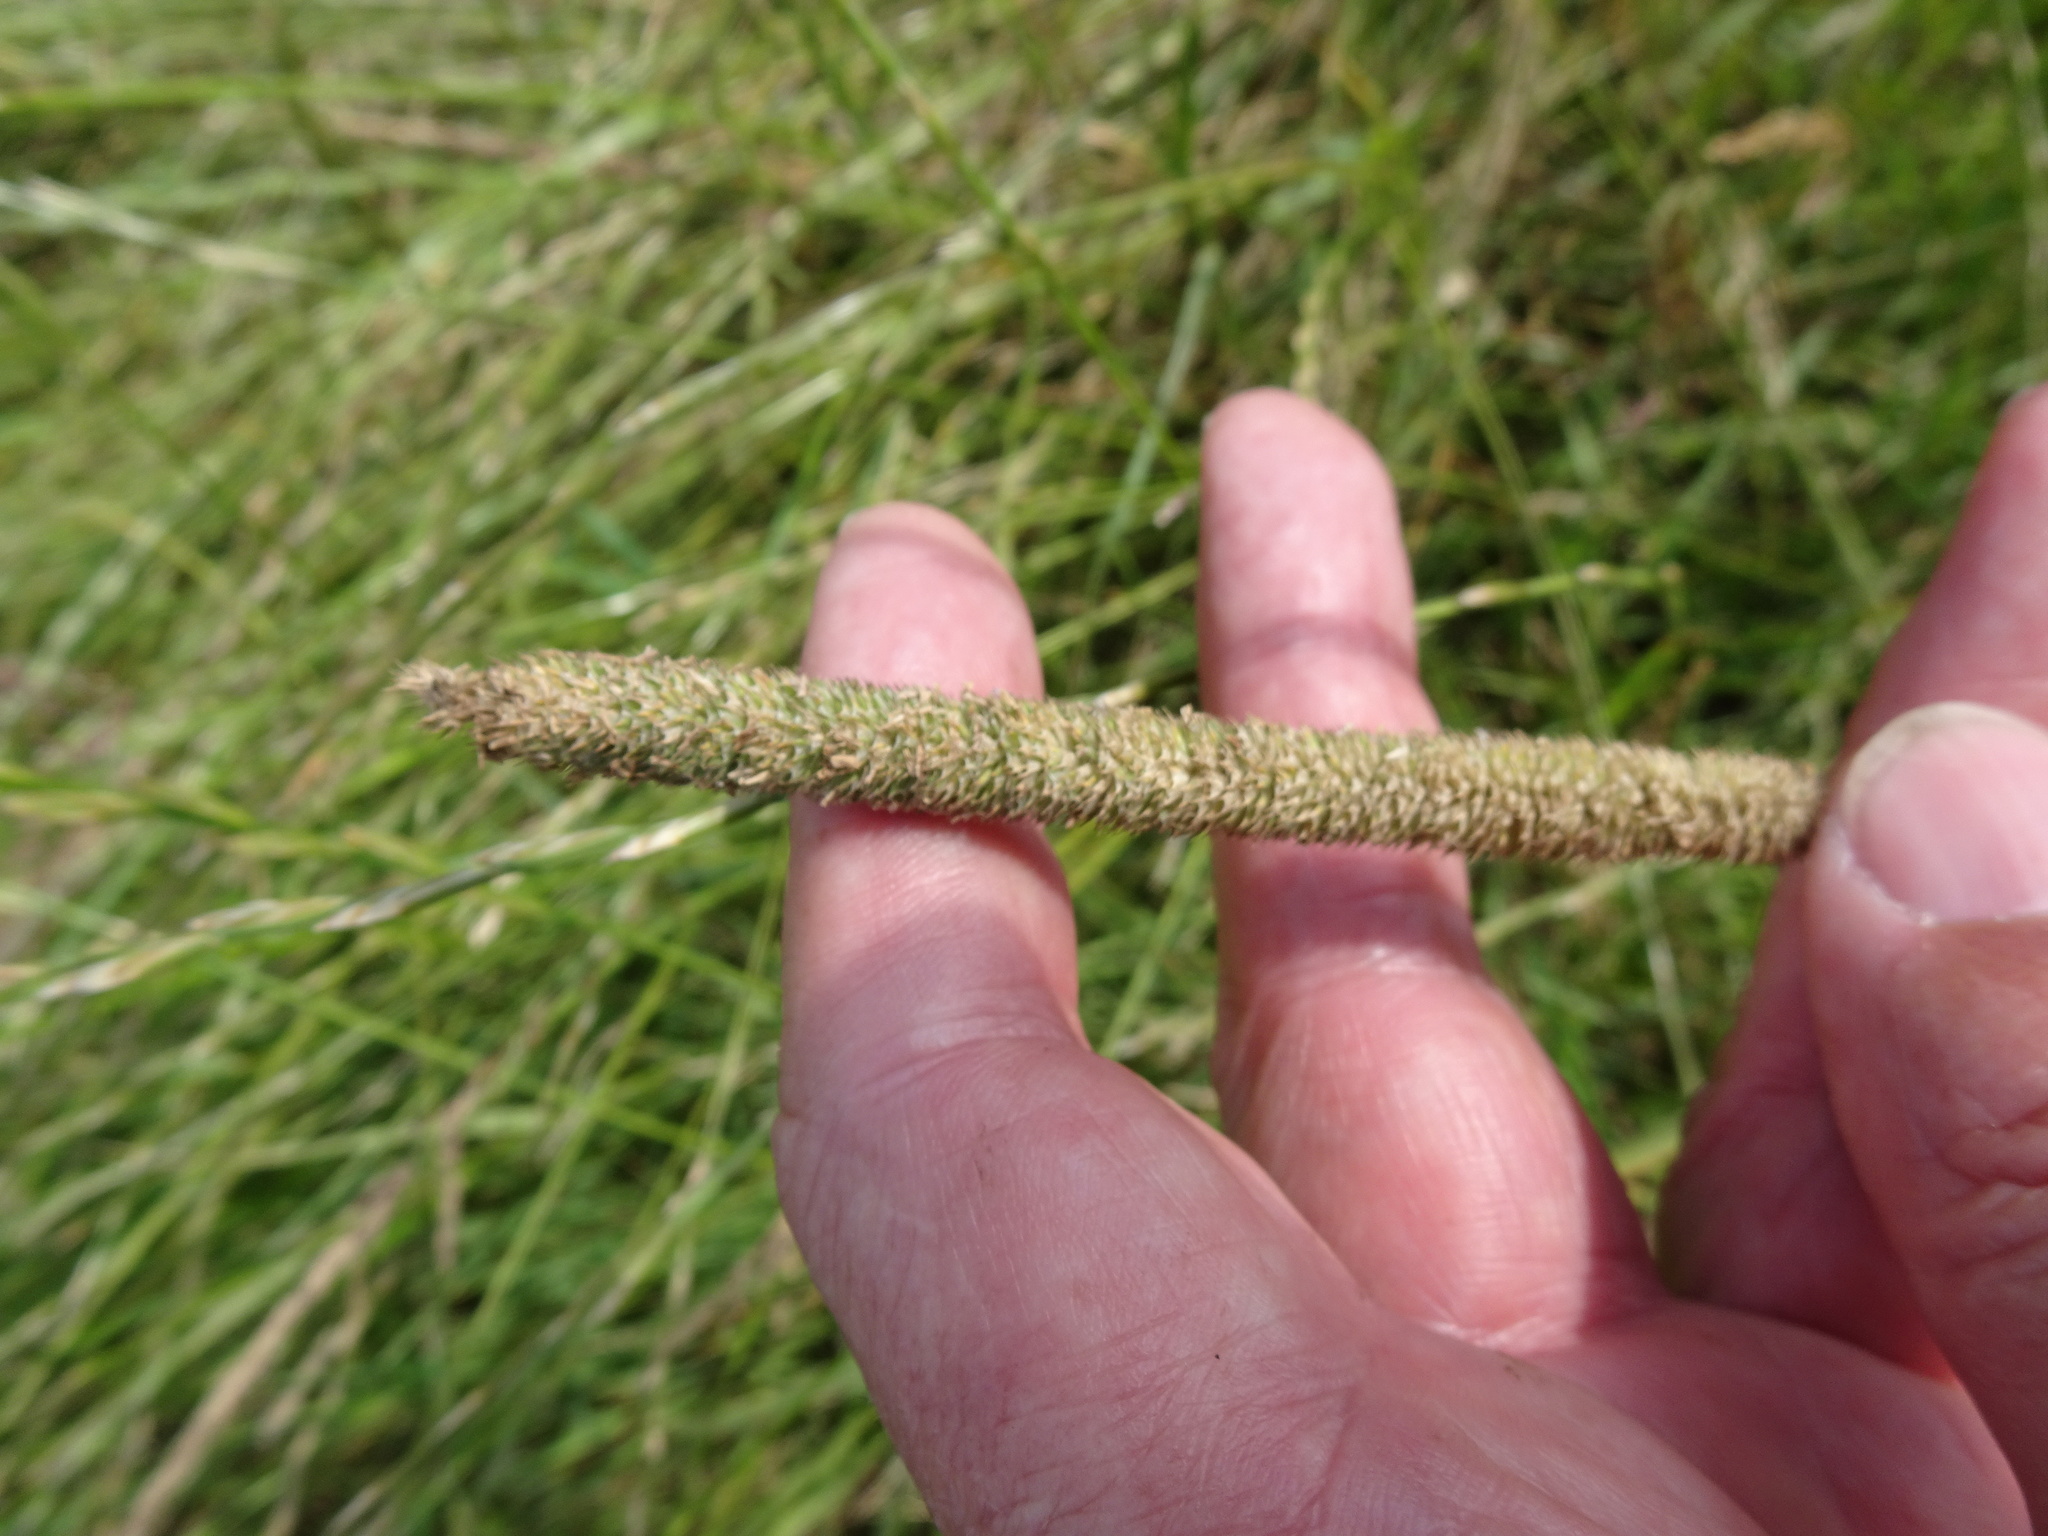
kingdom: Plantae
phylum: Tracheophyta
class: Liliopsida
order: Poales
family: Poaceae
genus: Phleum
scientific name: Phleum pratense
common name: Timothy grass
